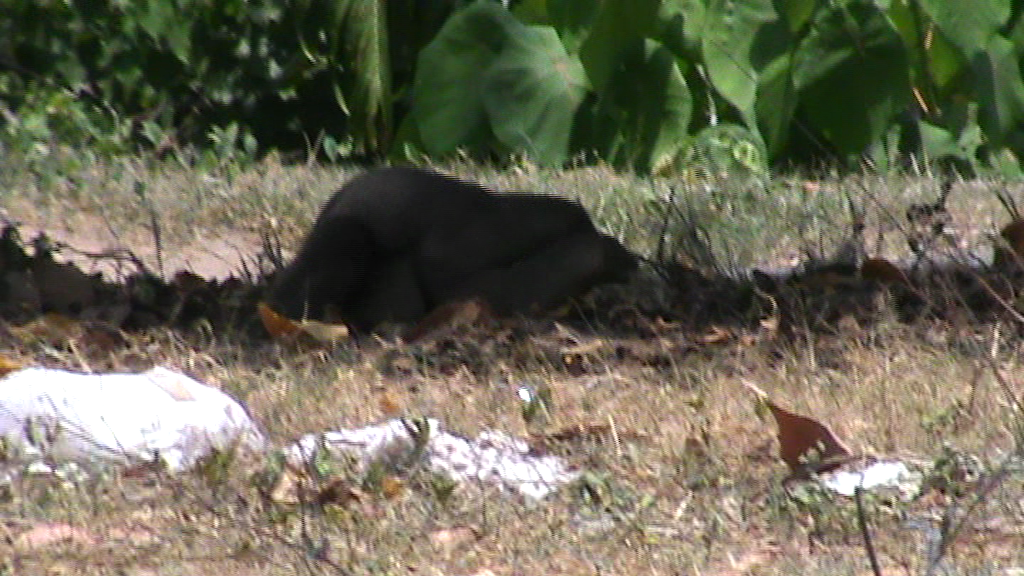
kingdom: Animalia
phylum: Chordata
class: Mammalia
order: Carnivora
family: Herpestidae
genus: Herpestes
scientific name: Herpestes edwardsi
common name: Indian gray mongoose
